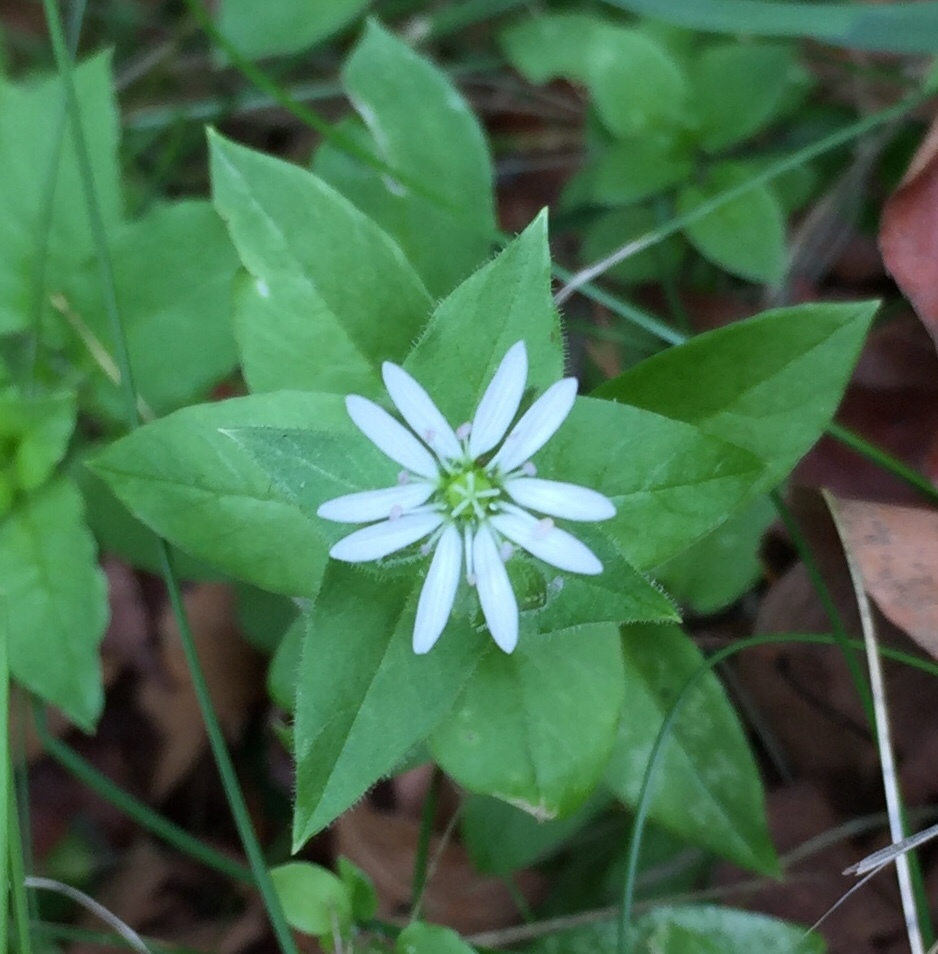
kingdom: Plantae
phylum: Tracheophyta
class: Magnoliopsida
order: Caryophyllales
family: Caryophyllaceae
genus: Stellaria
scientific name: Stellaria aquatica
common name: Water chickweed
